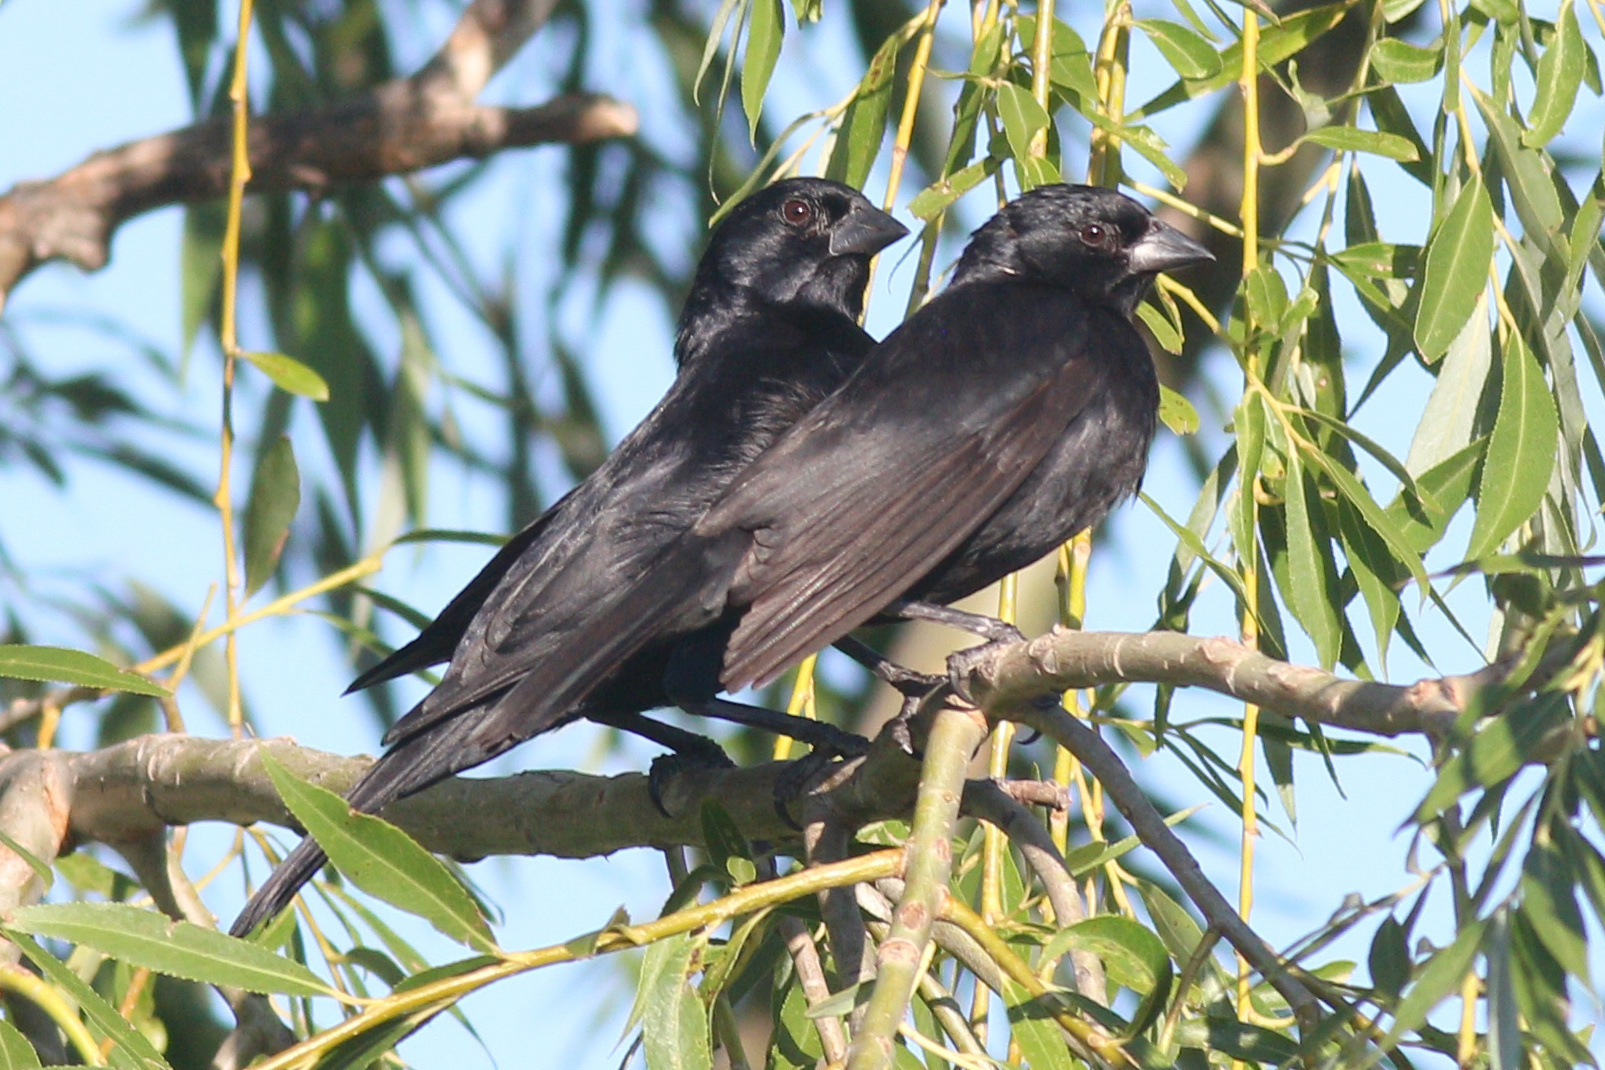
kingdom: Animalia
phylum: Chordata
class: Aves
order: Passeriformes
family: Icteridae
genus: Molothrus
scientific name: Molothrus rufoaxillaris
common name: Screaming cowbird
